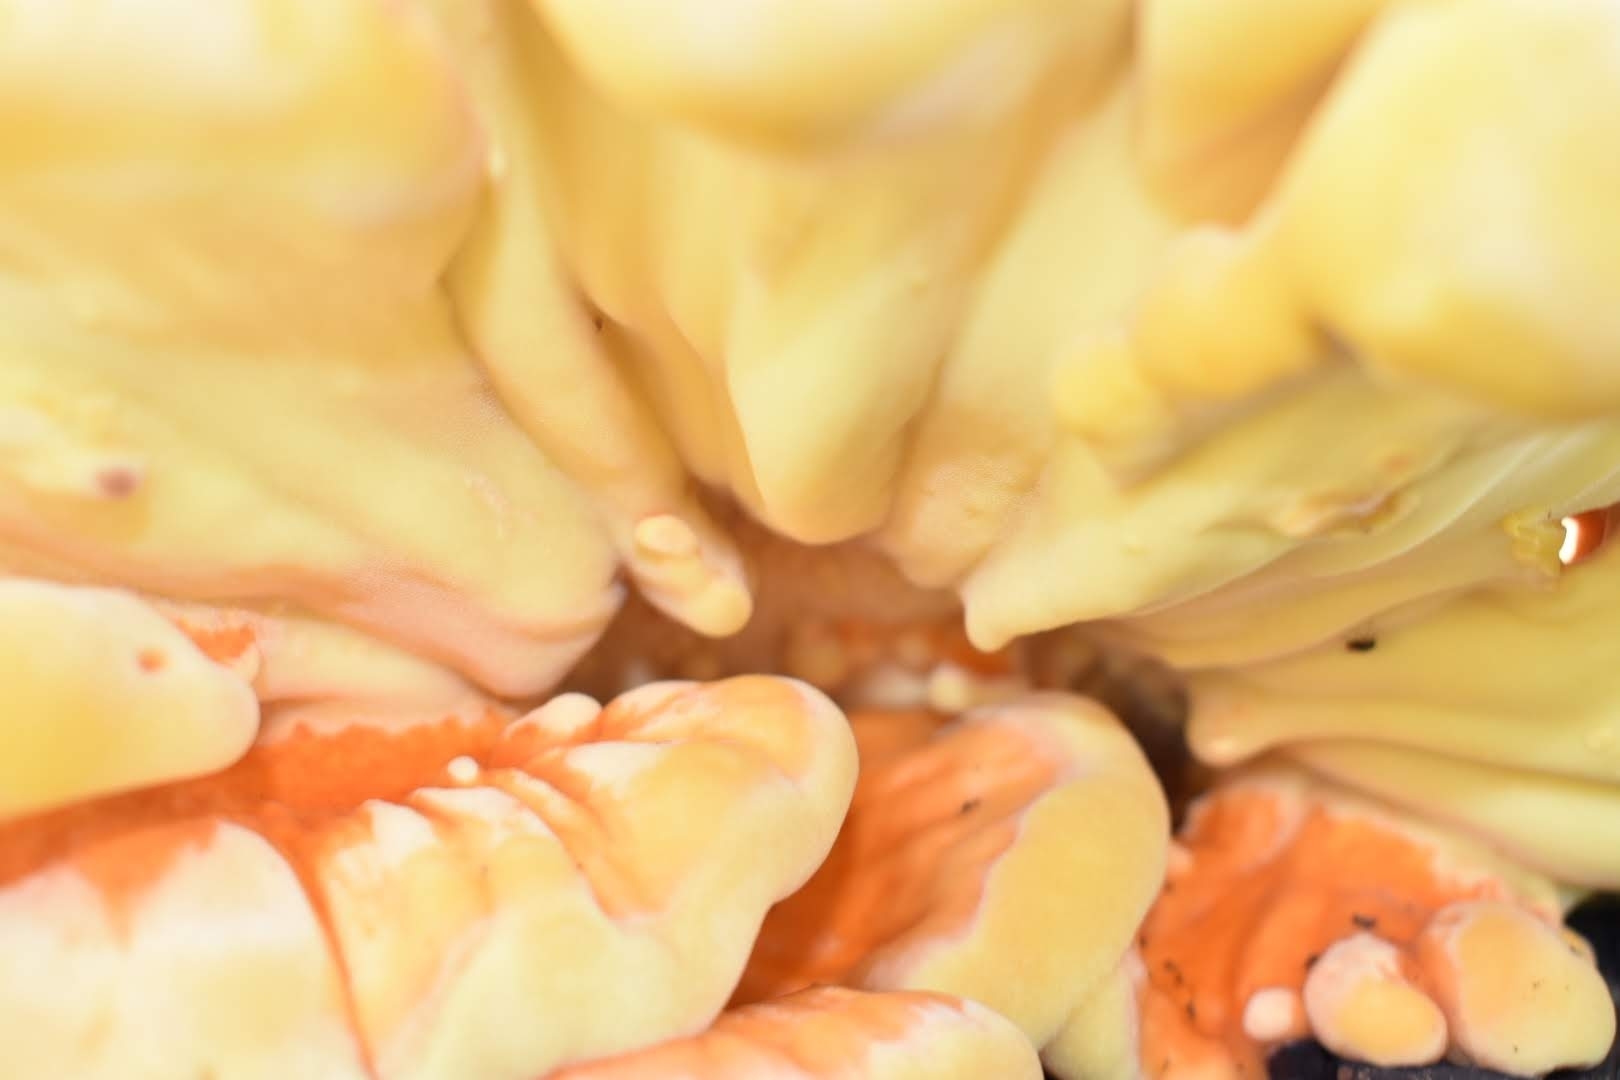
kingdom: Fungi
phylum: Basidiomycota
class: Agaricomycetes
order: Polyporales
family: Laetiporaceae
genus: Laetiporus
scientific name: Laetiporus sulphureus
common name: Chicken of the woods
